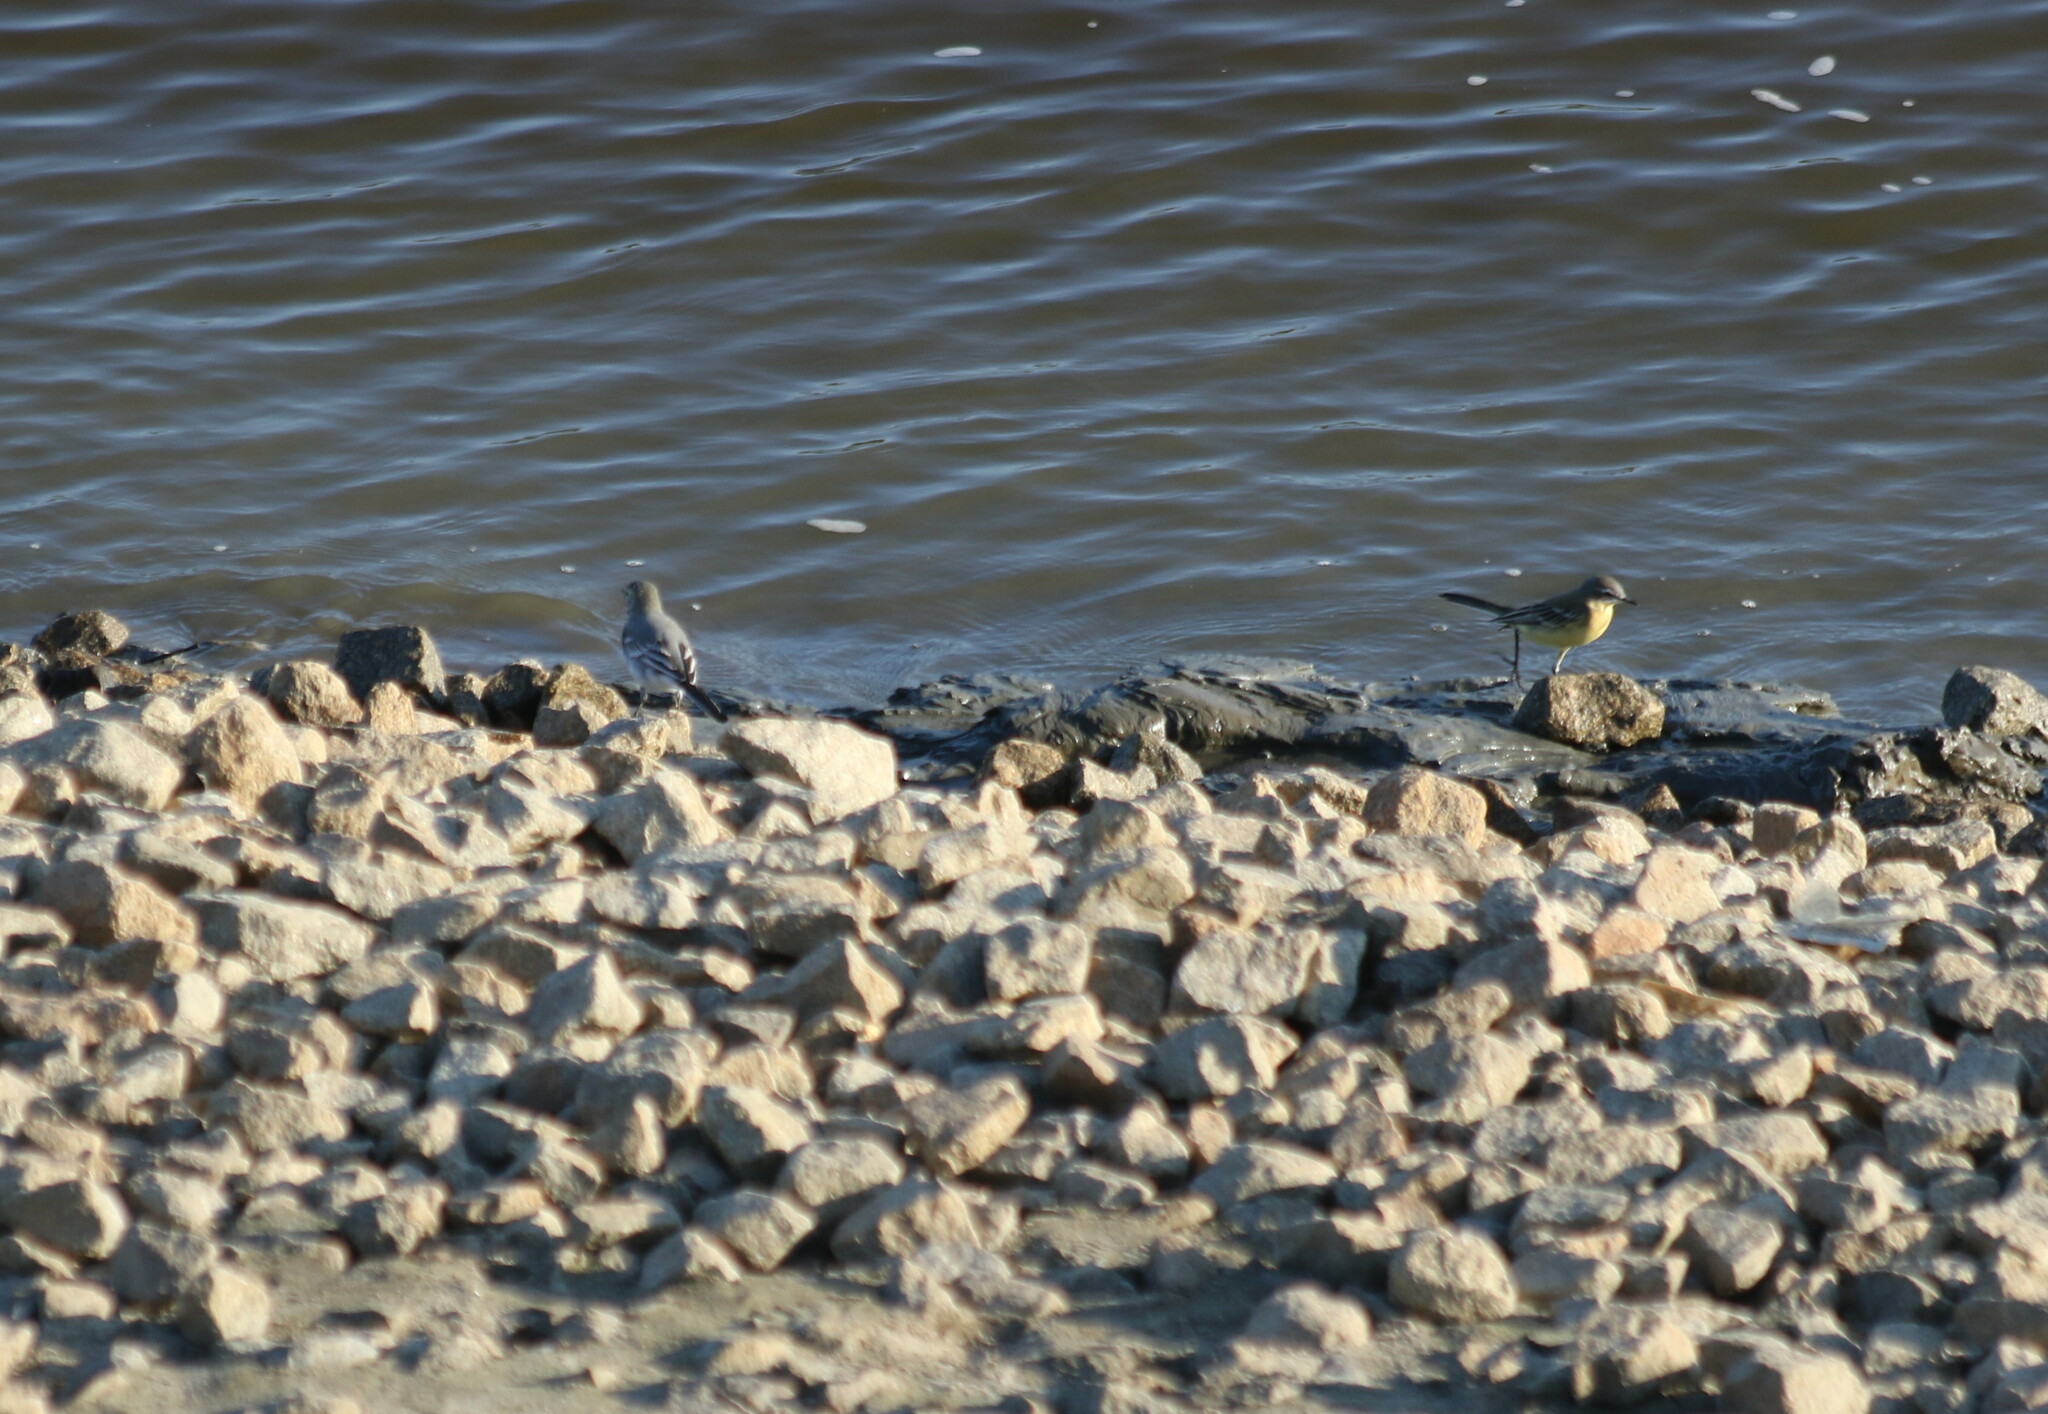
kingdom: Animalia
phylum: Chordata
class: Aves
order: Passeriformes
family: Motacillidae
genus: Motacilla
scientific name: Motacilla flava
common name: Western yellow wagtail
